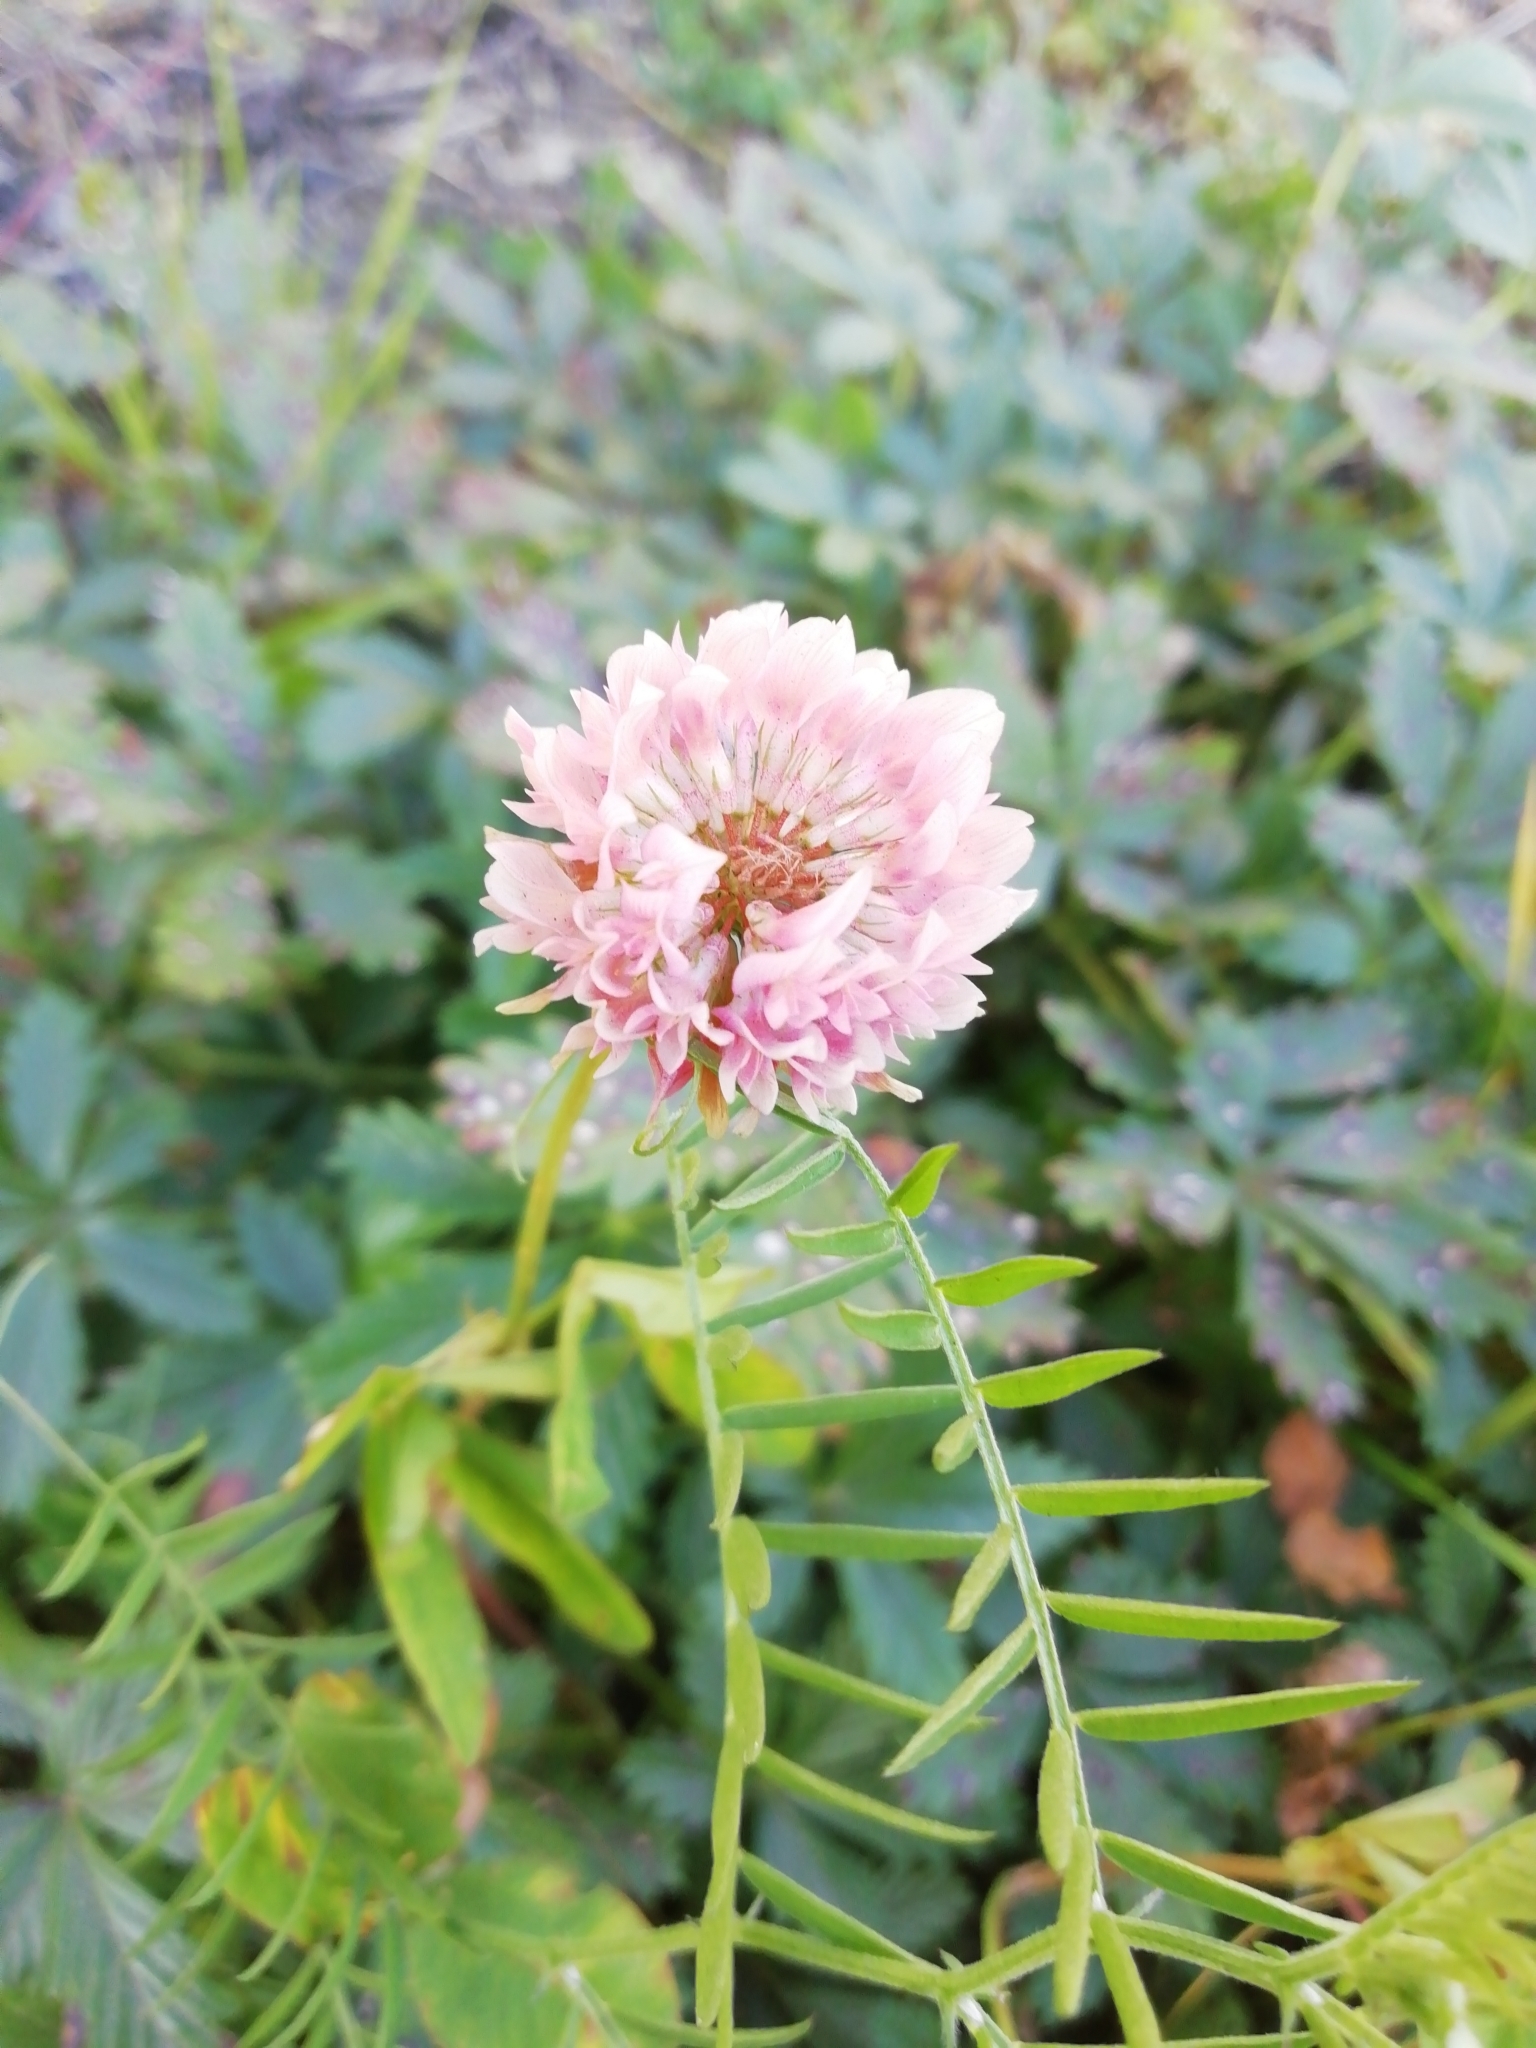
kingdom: Plantae
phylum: Tracheophyta
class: Magnoliopsida
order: Fabales
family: Fabaceae
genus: Trifolium
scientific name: Trifolium hybridum
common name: Alsike clover
